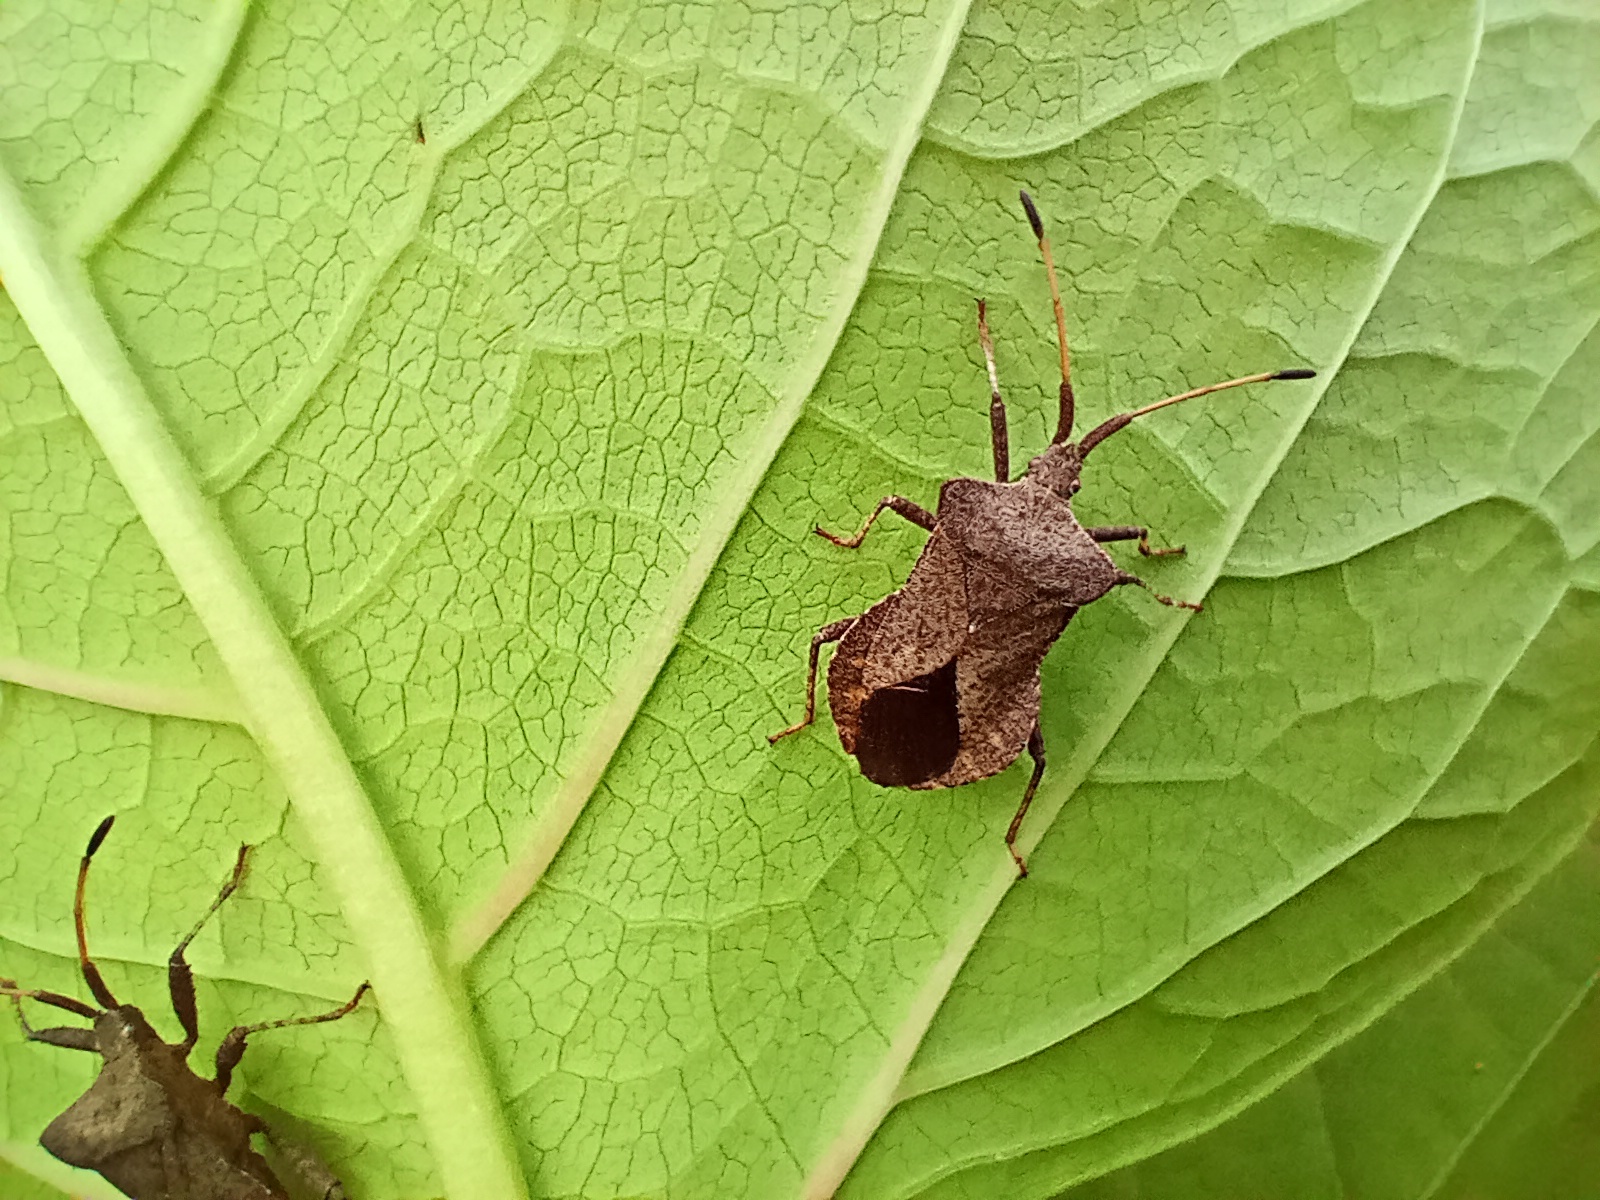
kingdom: Animalia
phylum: Arthropoda
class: Insecta
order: Hemiptera
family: Coreidae
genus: Coreus
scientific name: Coreus marginatus
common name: Dock bug
